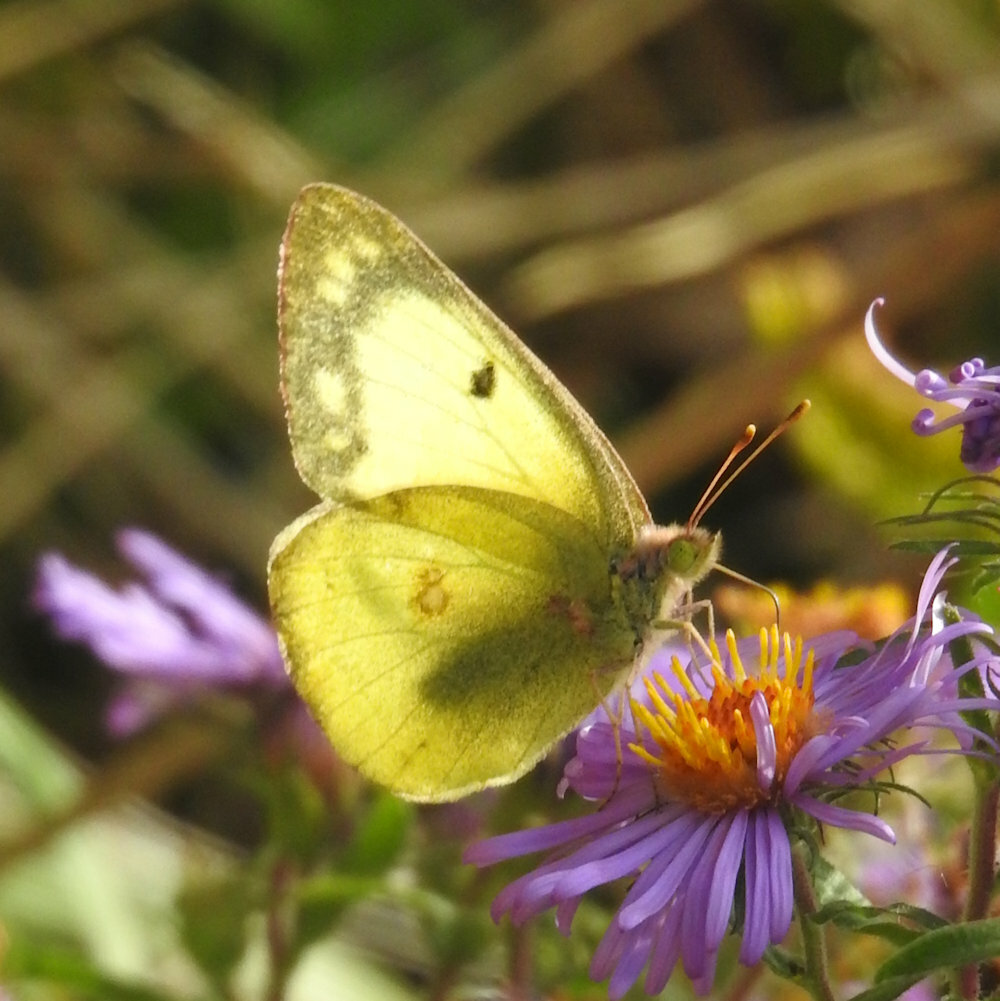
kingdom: Animalia
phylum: Arthropoda
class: Insecta
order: Lepidoptera
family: Pieridae
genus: Colias
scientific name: Colias philodice
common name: Clouded sulphur
